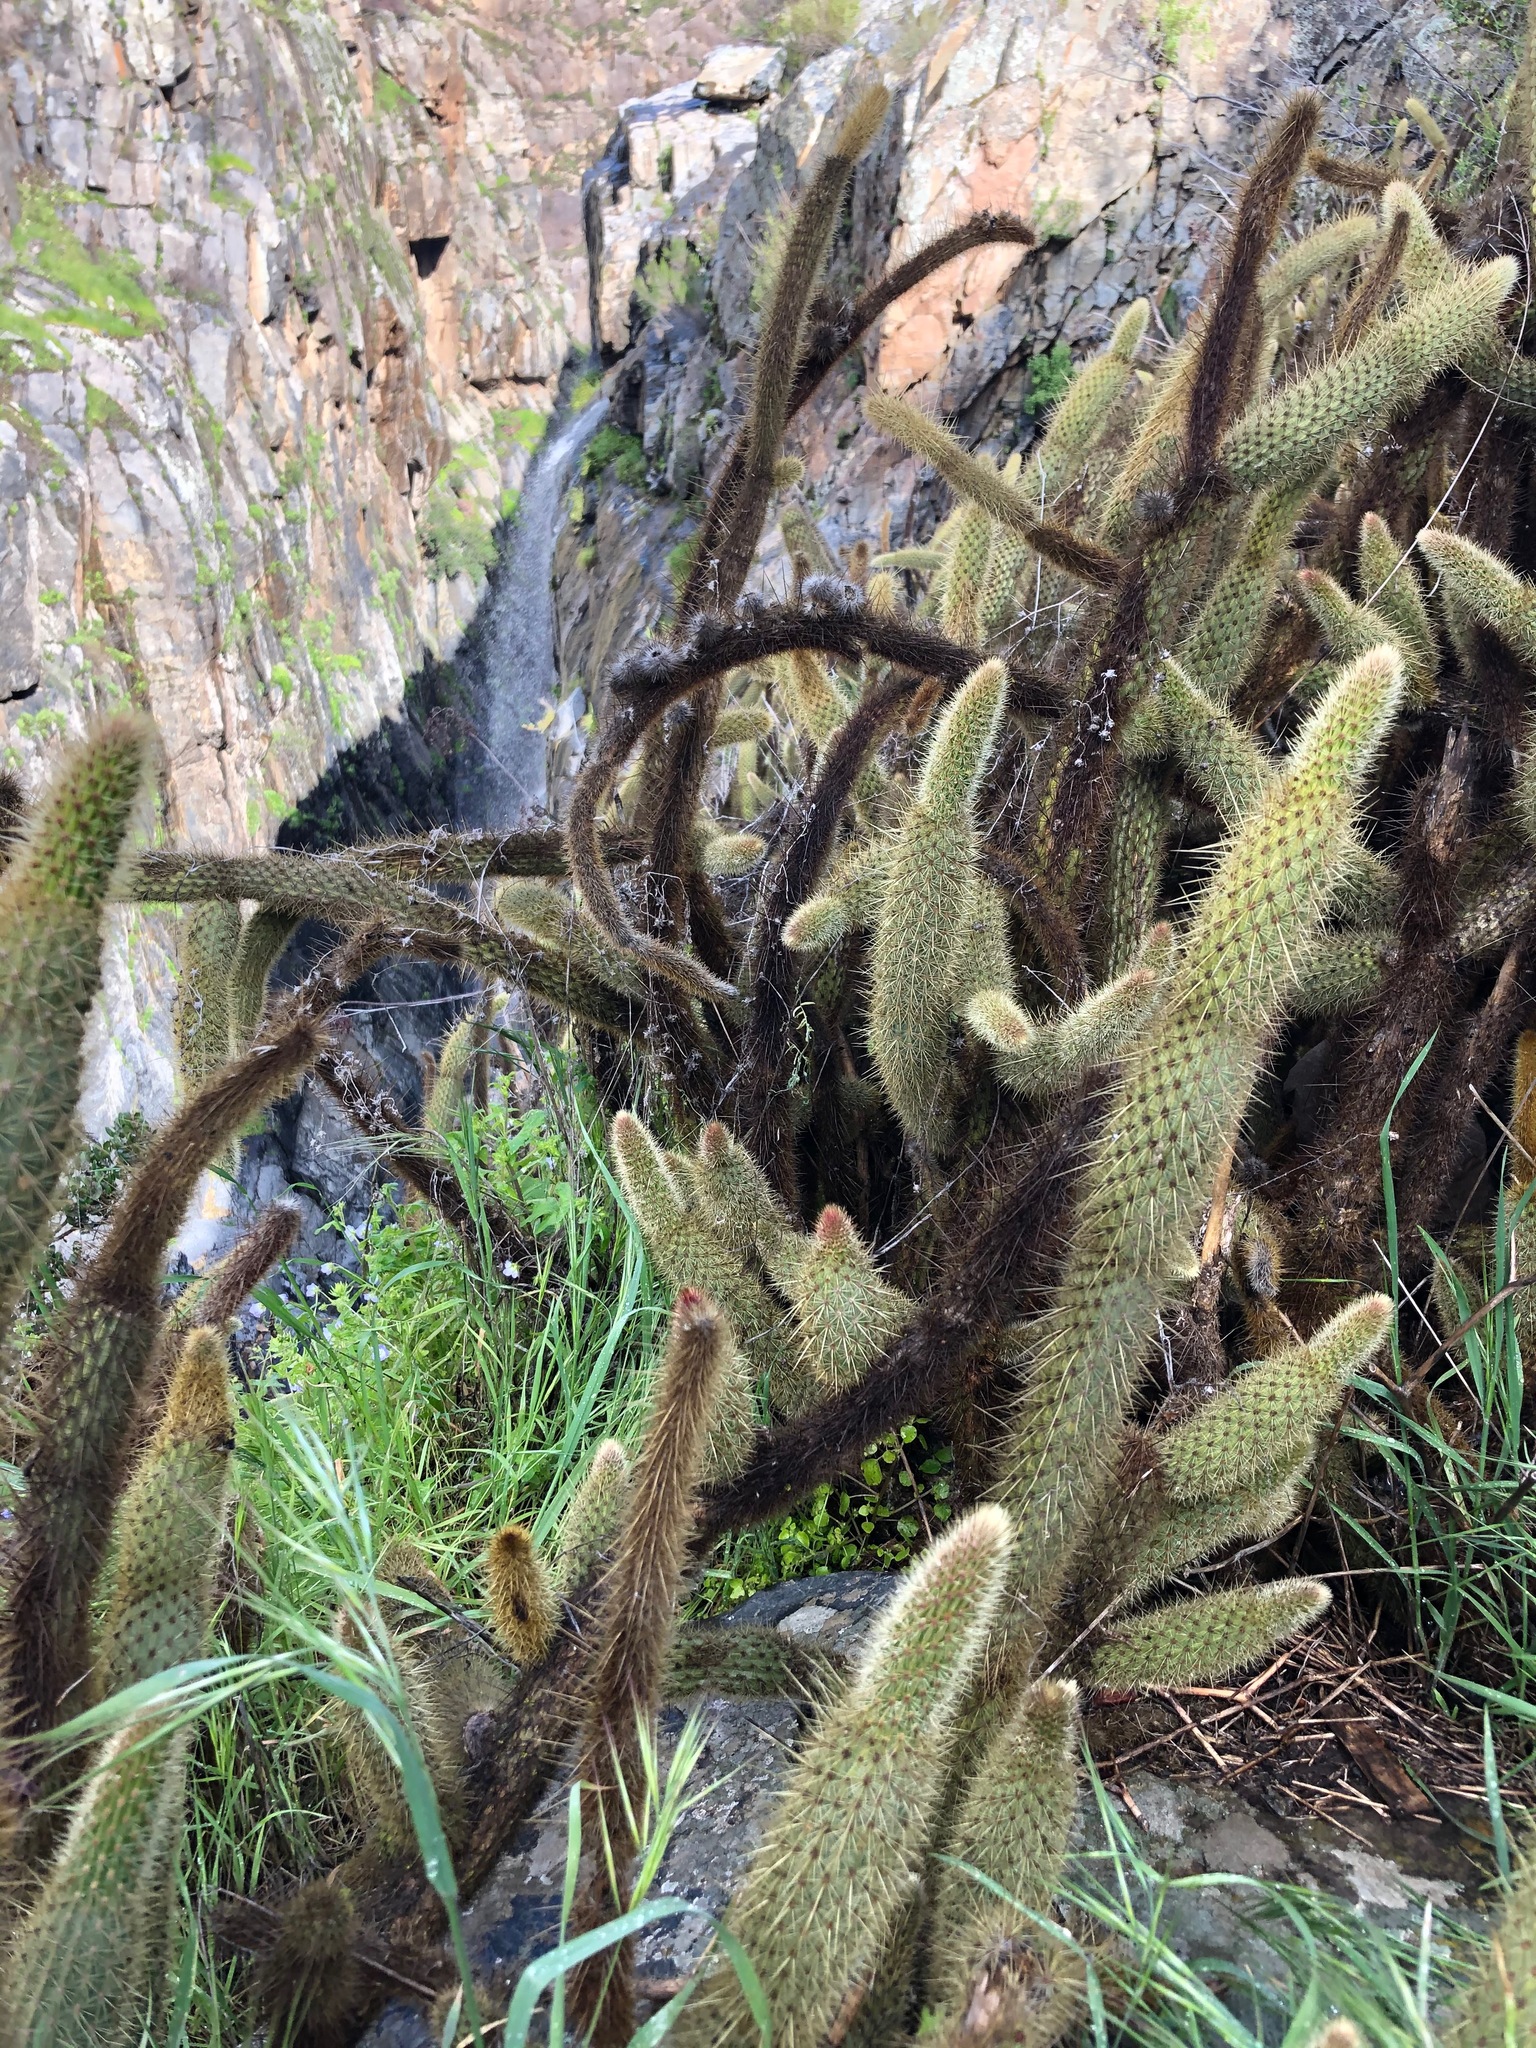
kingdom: Plantae
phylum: Tracheophyta
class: Magnoliopsida
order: Caryophyllales
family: Cactaceae
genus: Bergerocactus
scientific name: Bergerocactus emoryi
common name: Golden snakecactus
